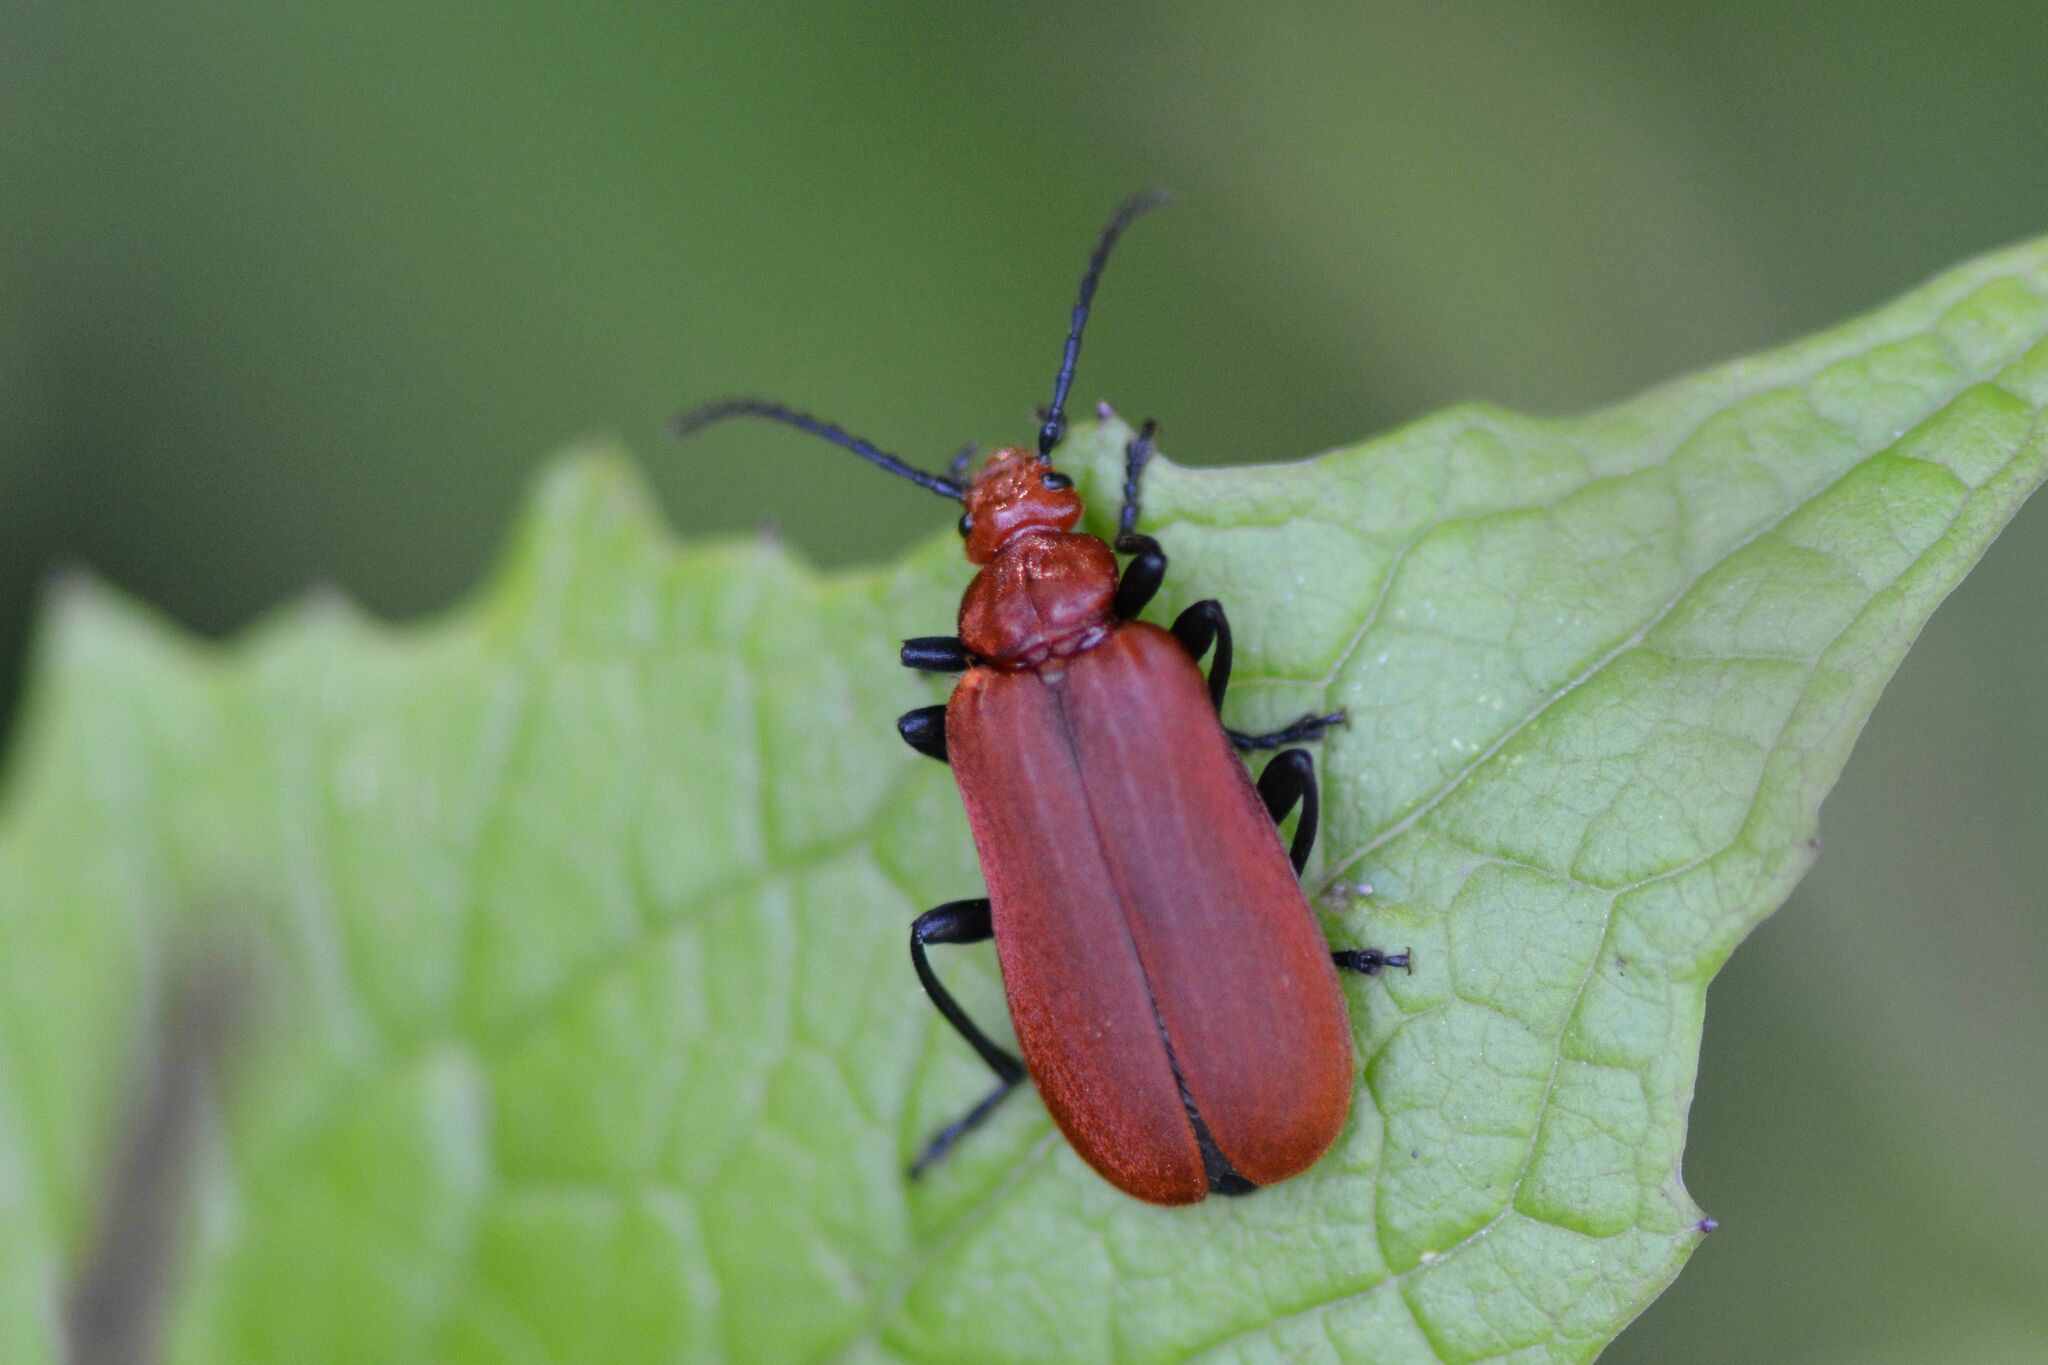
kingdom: Animalia
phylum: Arthropoda
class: Insecta
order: Coleoptera
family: Pyrochroidae
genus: Pyrochroa
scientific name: Pyrochroa serraticornis
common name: Red-headed cardinal beetle
